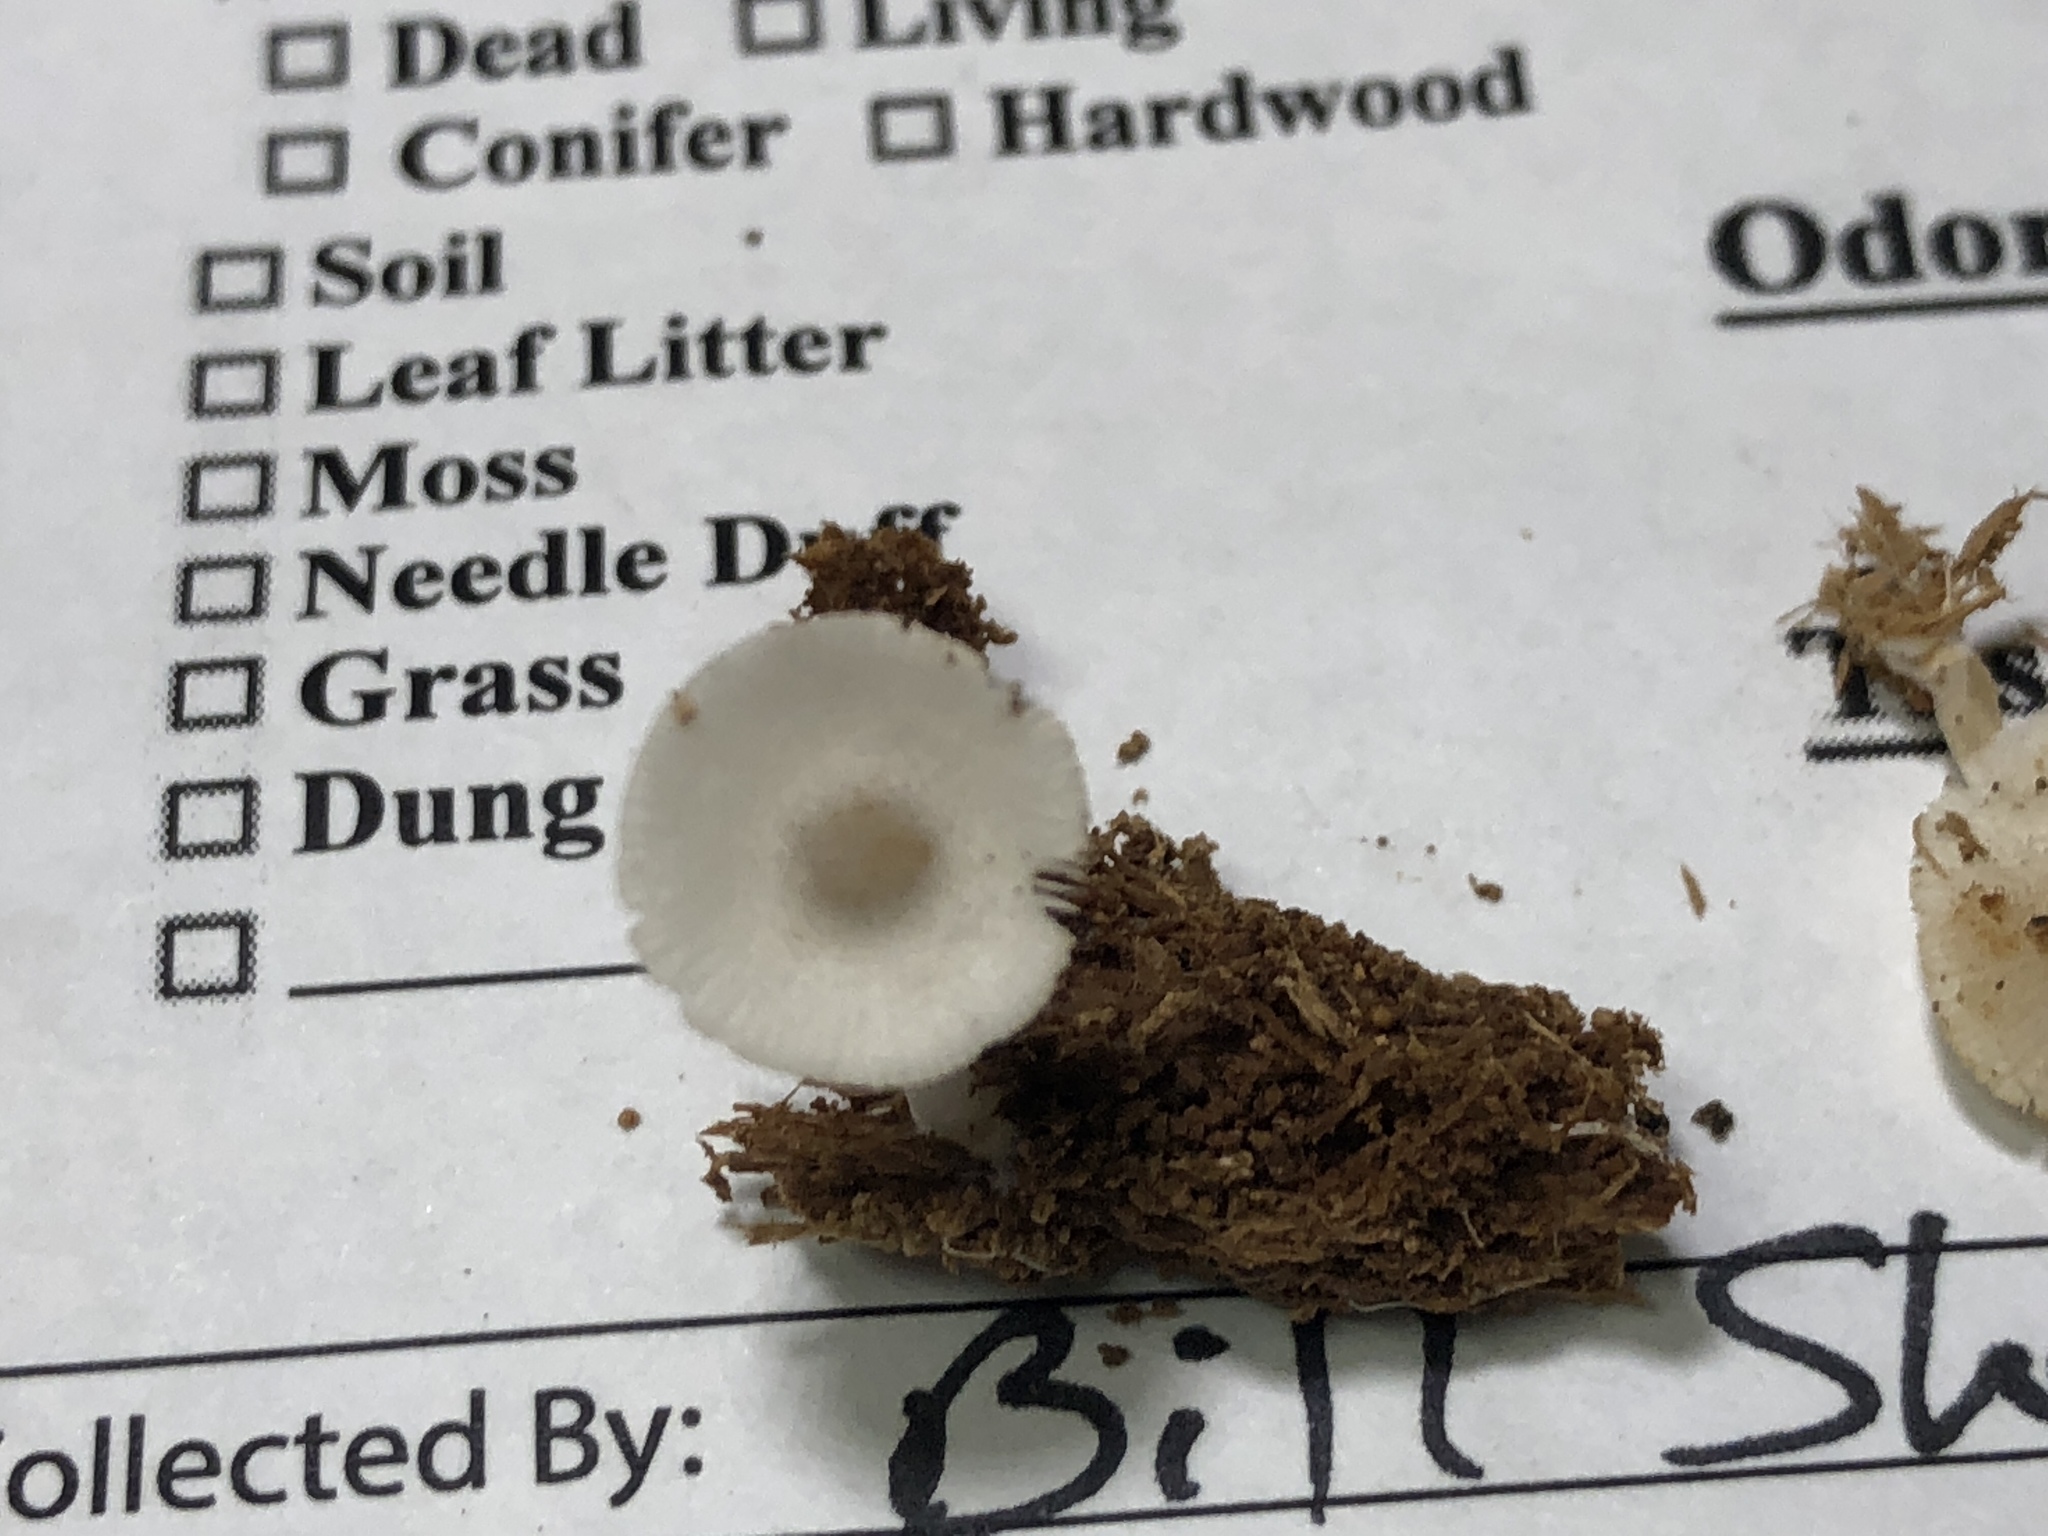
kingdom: Fungi
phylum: Basidiomycota
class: Agaricomycetes
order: Agaricales
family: Agaricaceae
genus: Lepiota
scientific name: Lepiota phaeosticta
